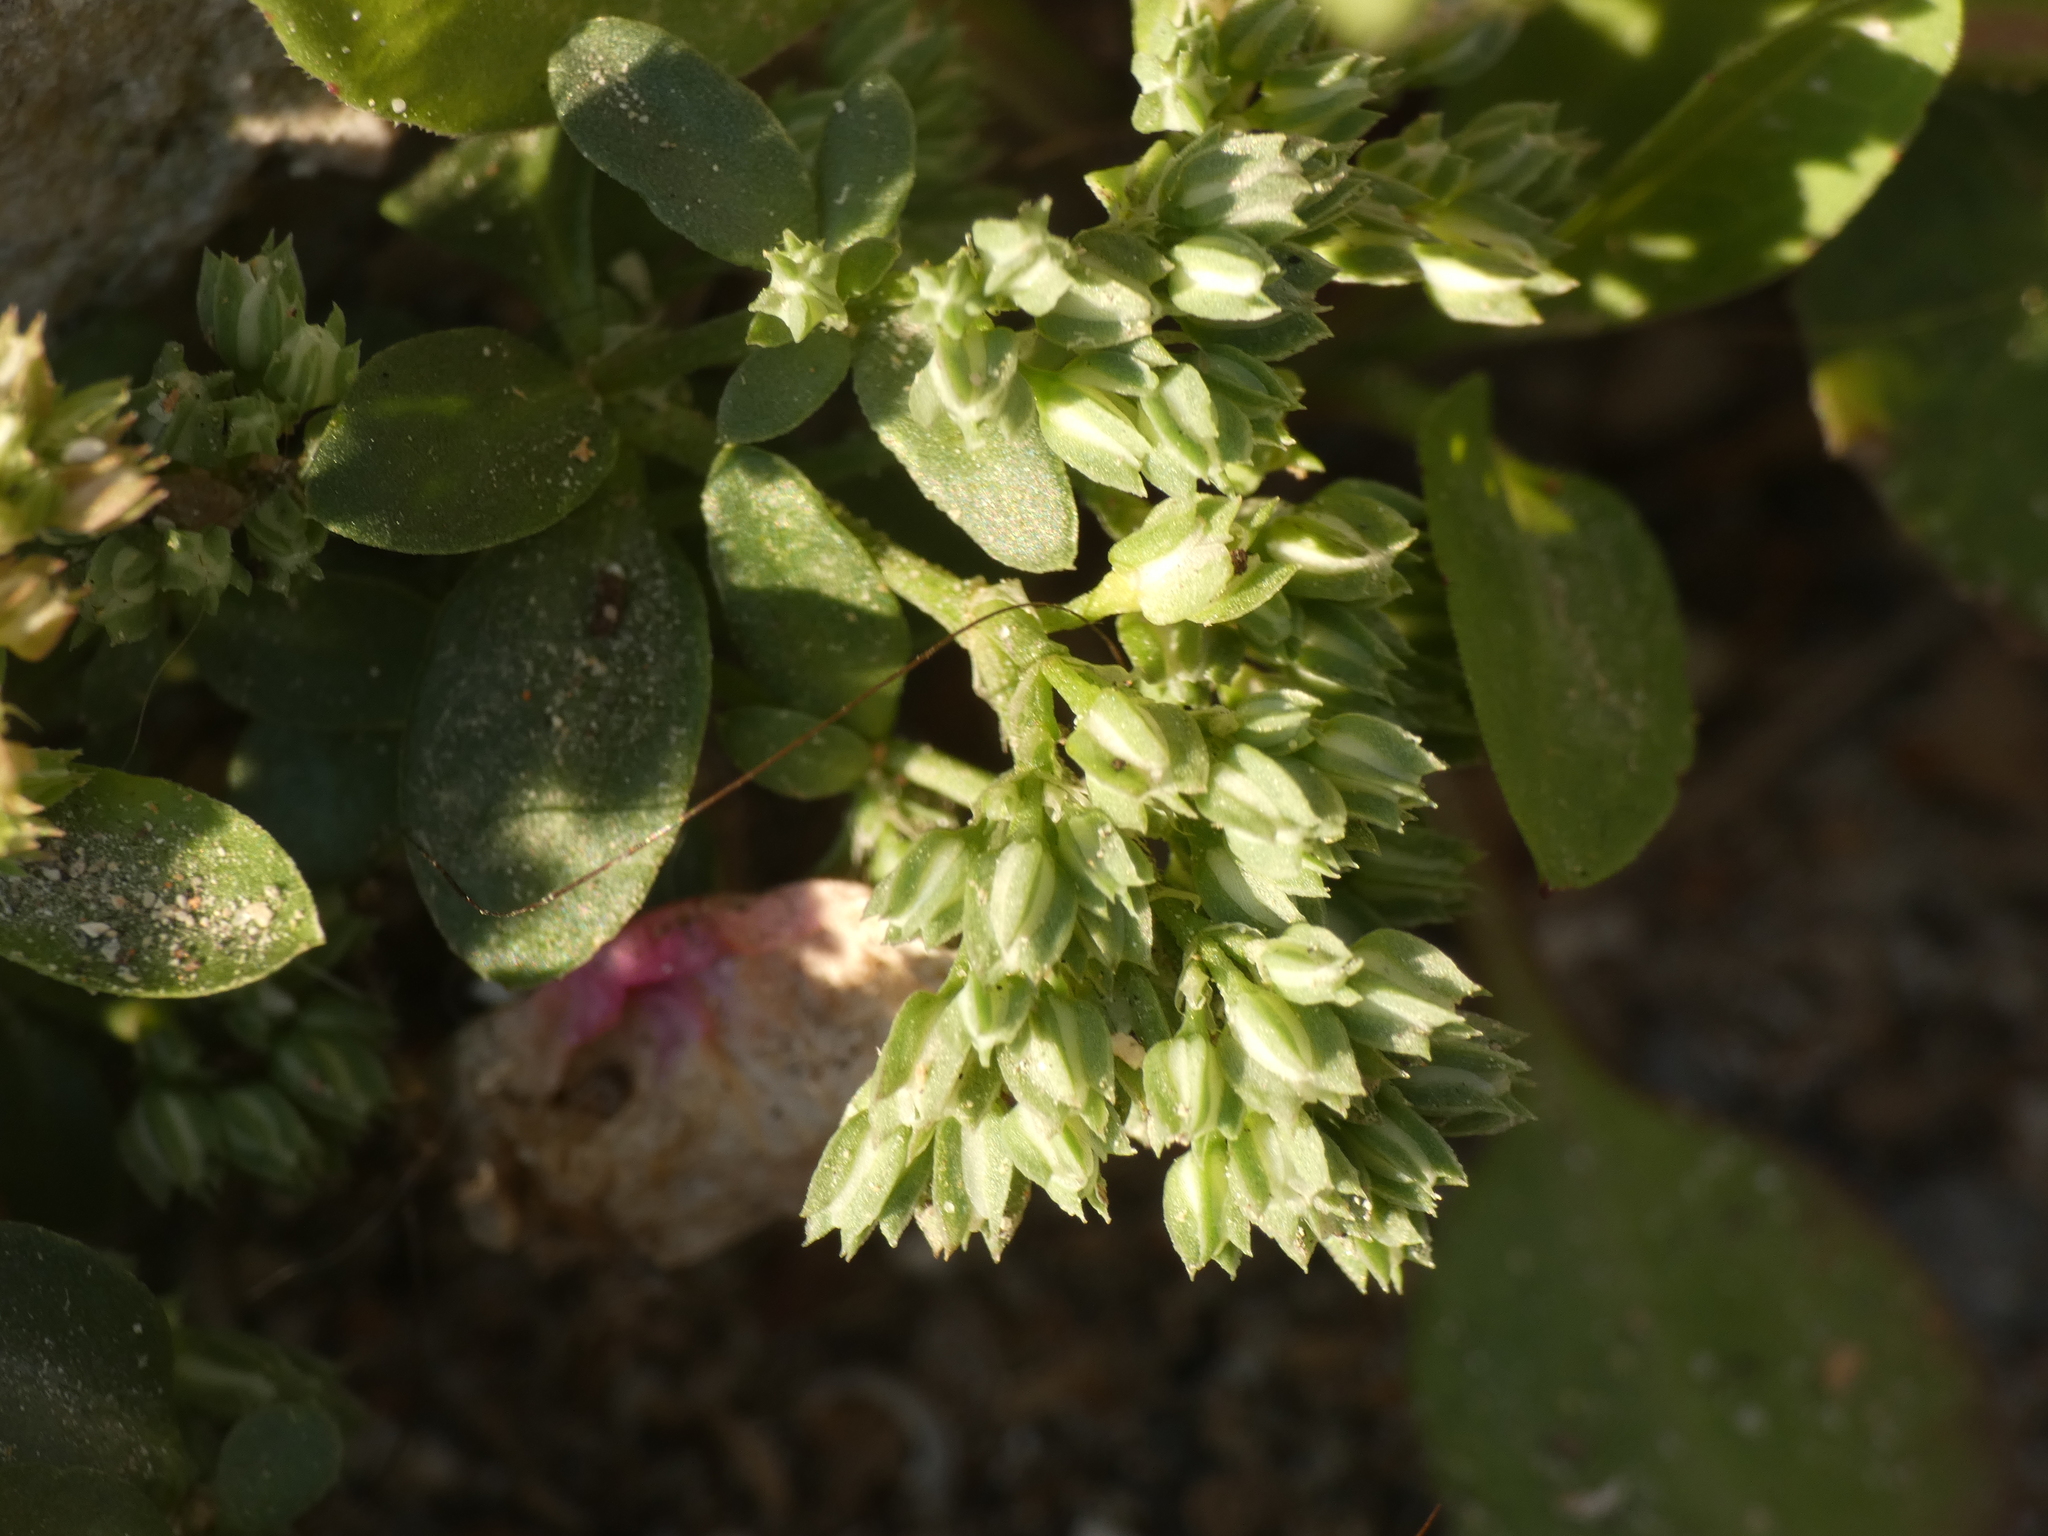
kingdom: Plantae
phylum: Tracheophyta
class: Magnoliopsida
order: Caryophyllales
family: Caryophyllaceae
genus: Polycarpon
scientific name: Polycarpon tetraphyllum
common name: Four-leaved all-seed
